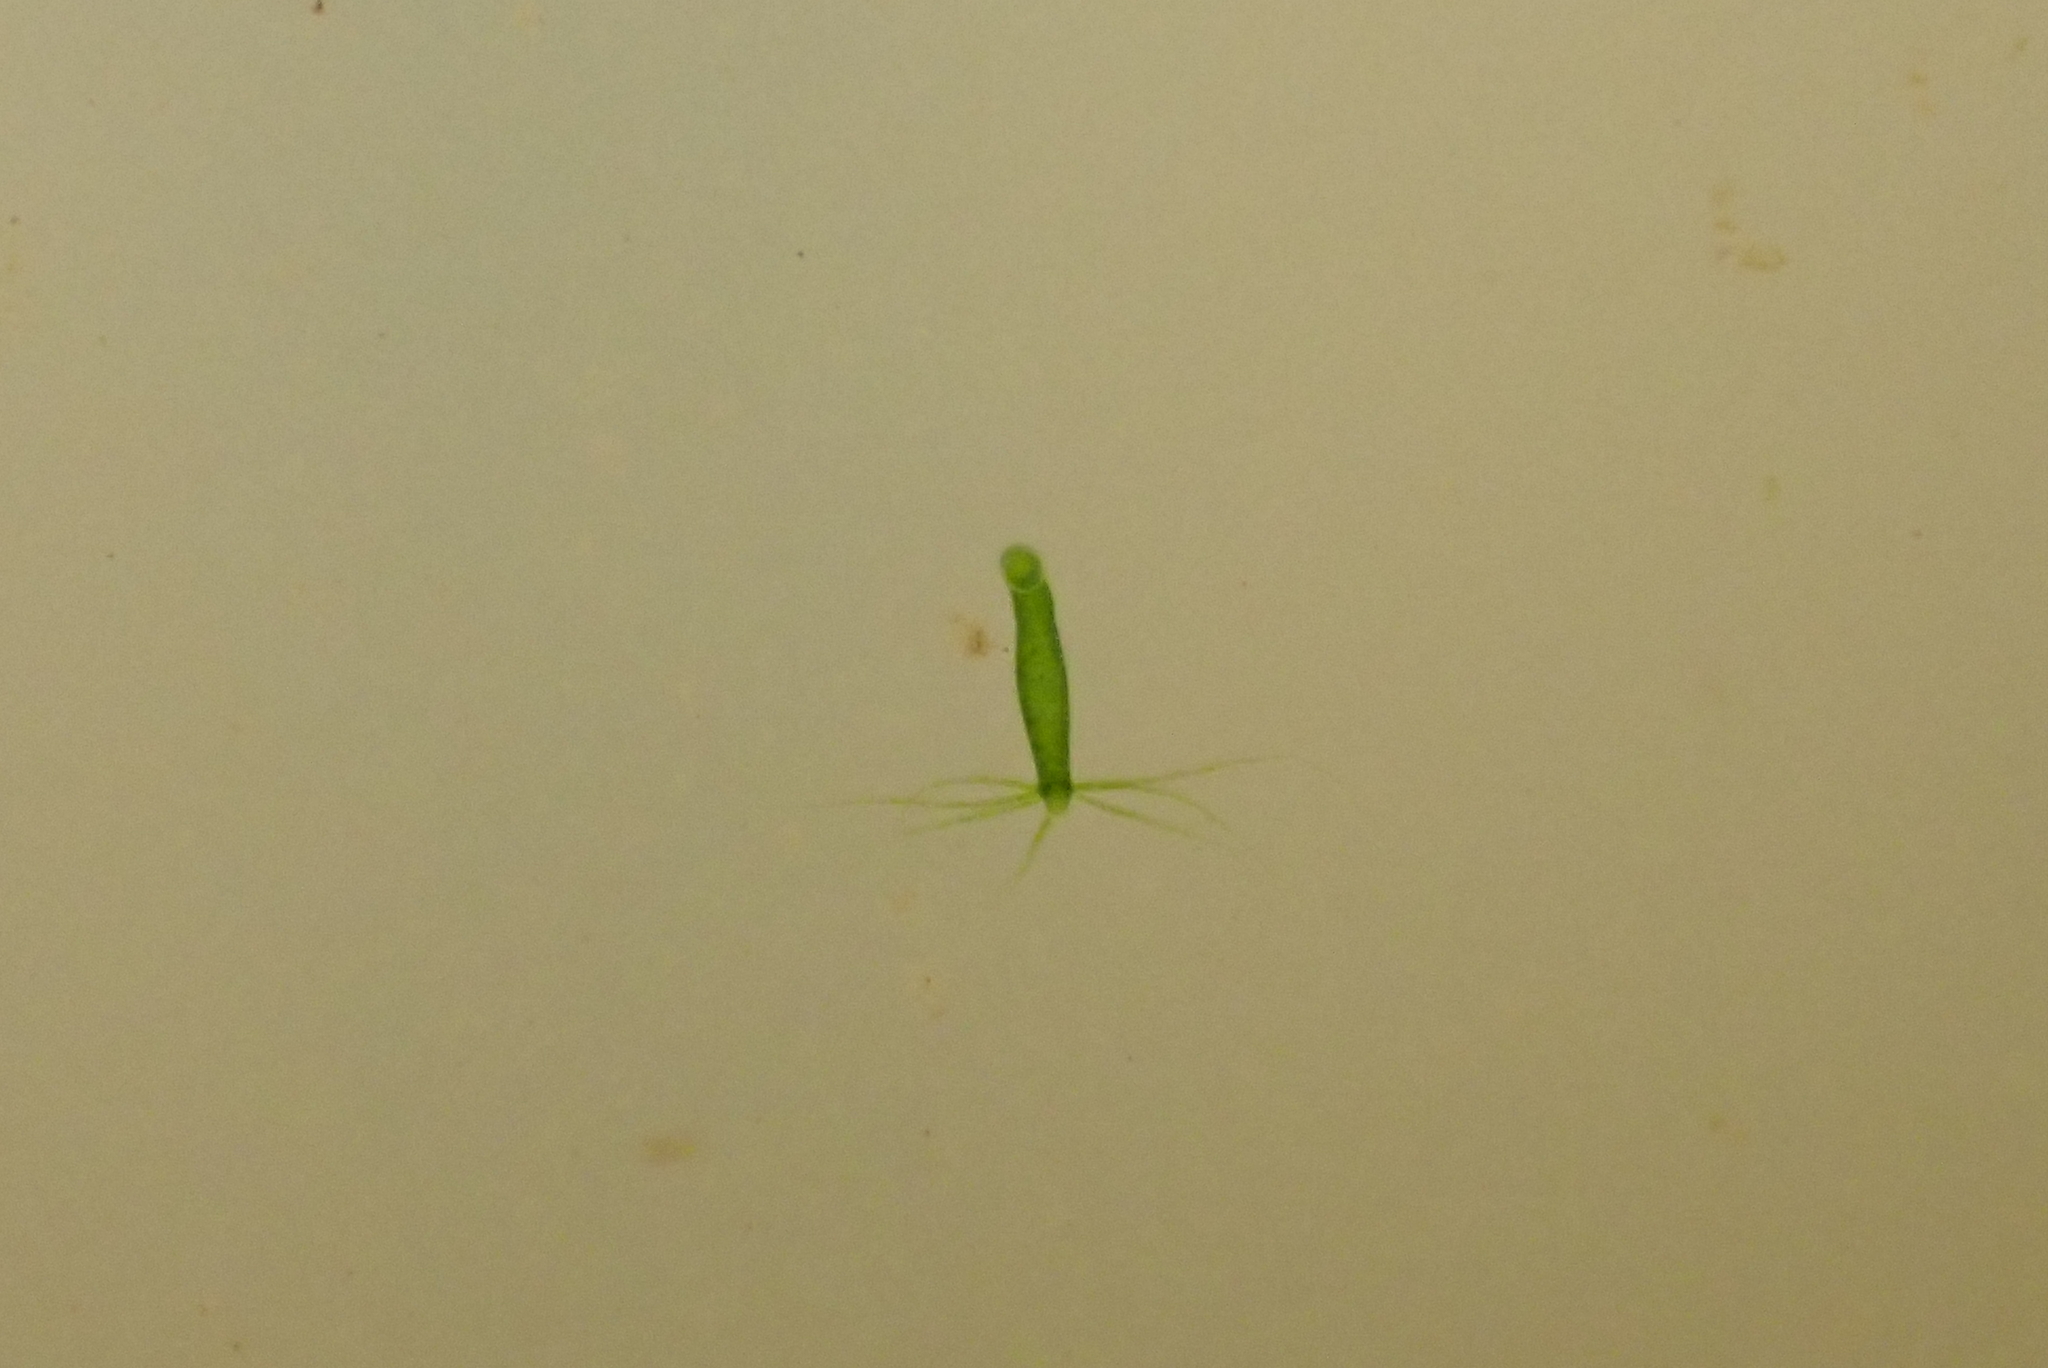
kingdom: Animalia
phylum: Cnidaria
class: Hydrozoa
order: Anthoathecata
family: Hydridae
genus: Hydra
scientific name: Hydra viridissima
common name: Green hydra
